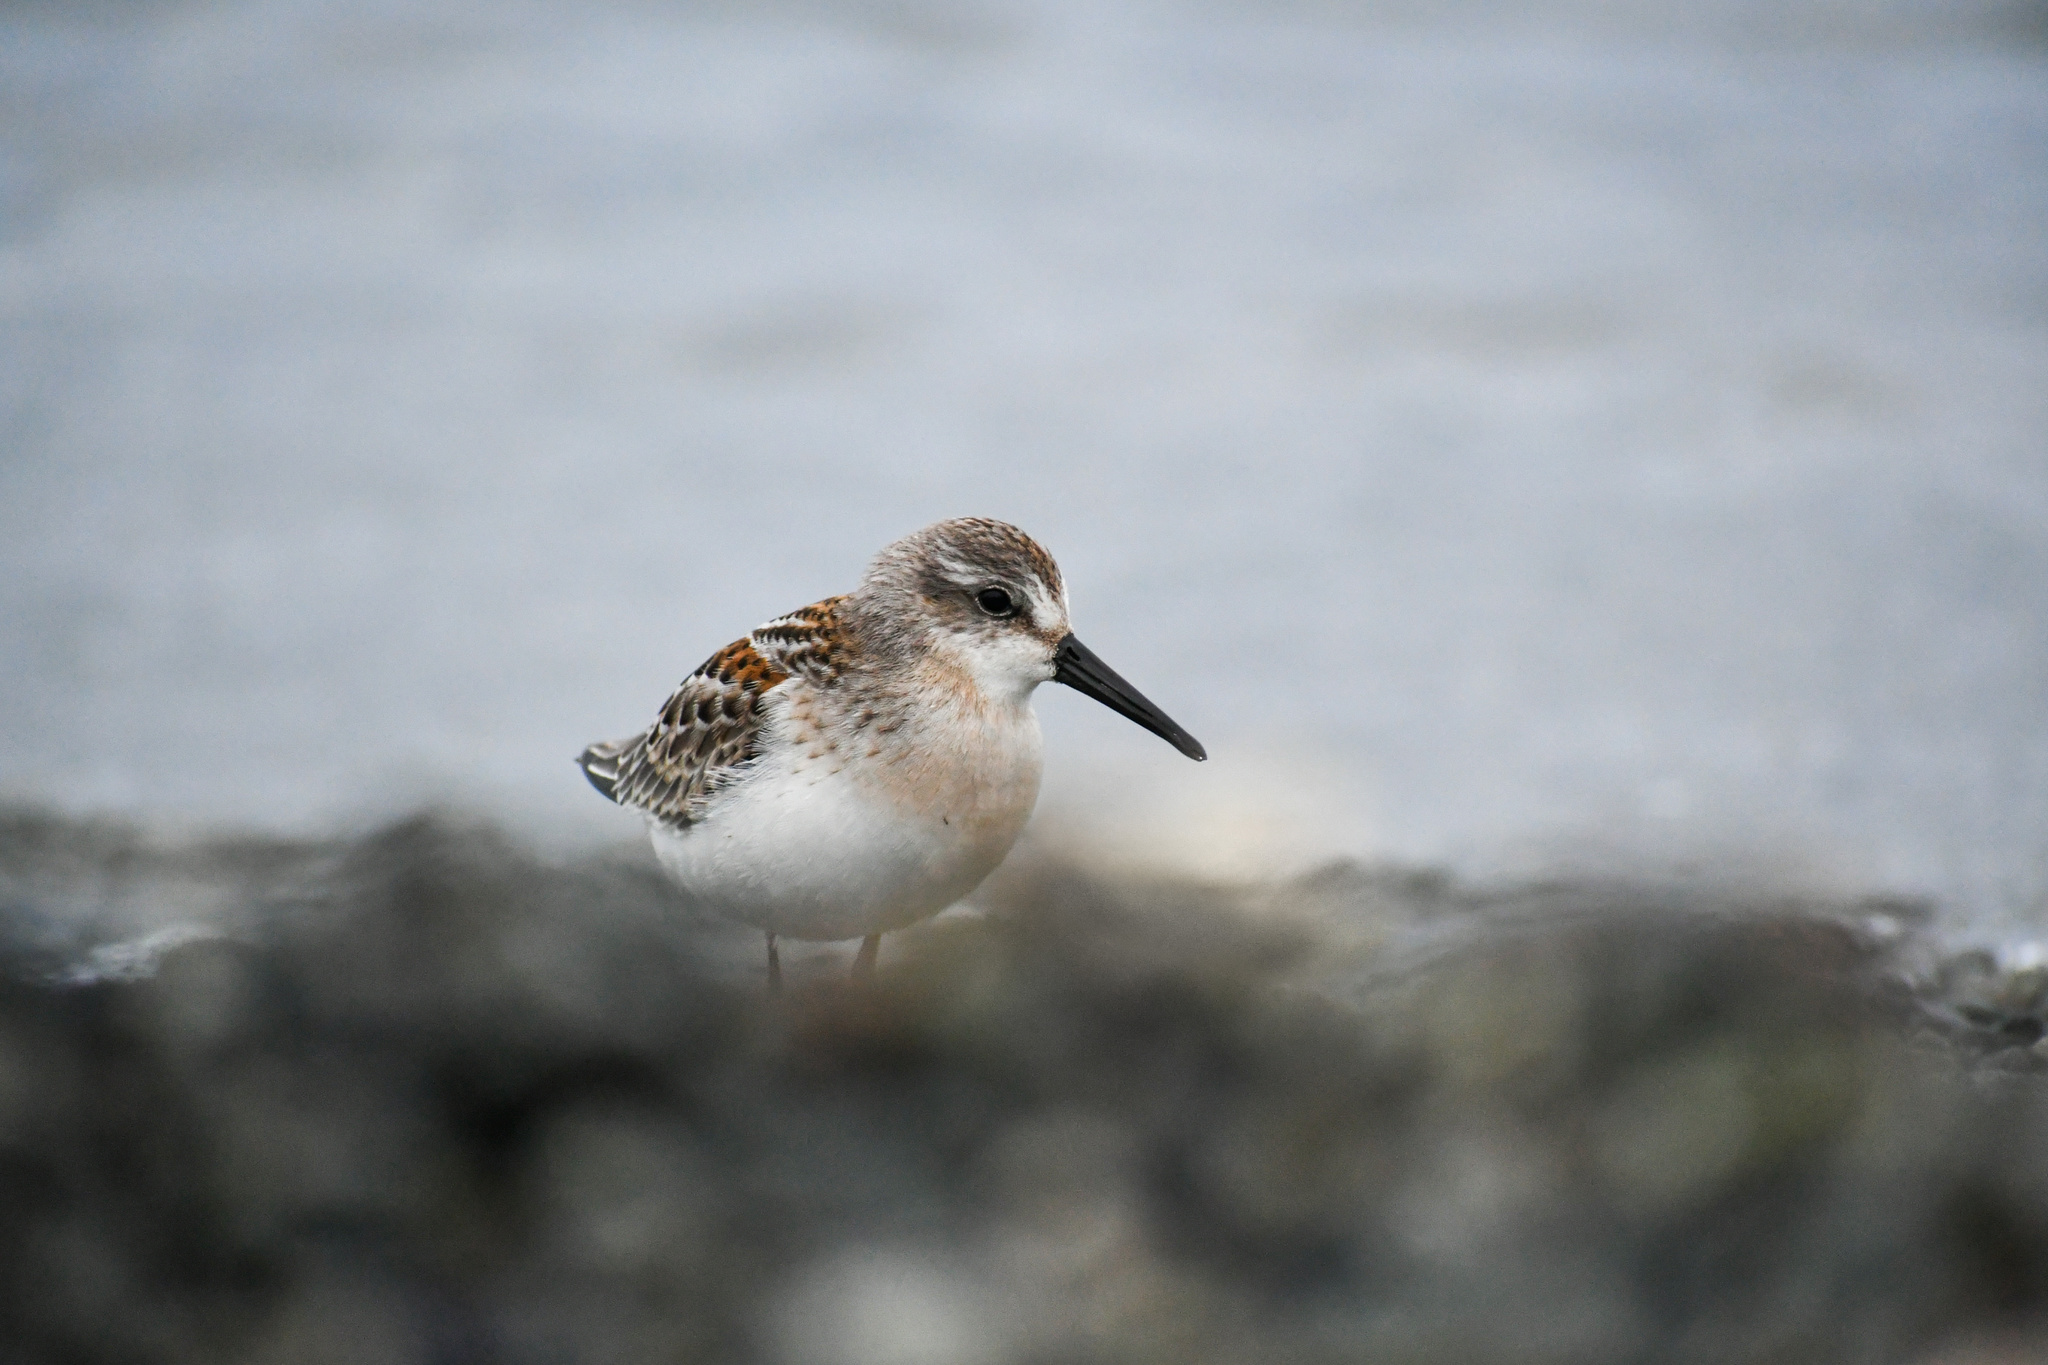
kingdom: Animalia
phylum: Chordata
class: Aves
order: Charadriiformes
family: Scolopacidae
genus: Calidris
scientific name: Calidris mauri
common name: Western sandpiper
